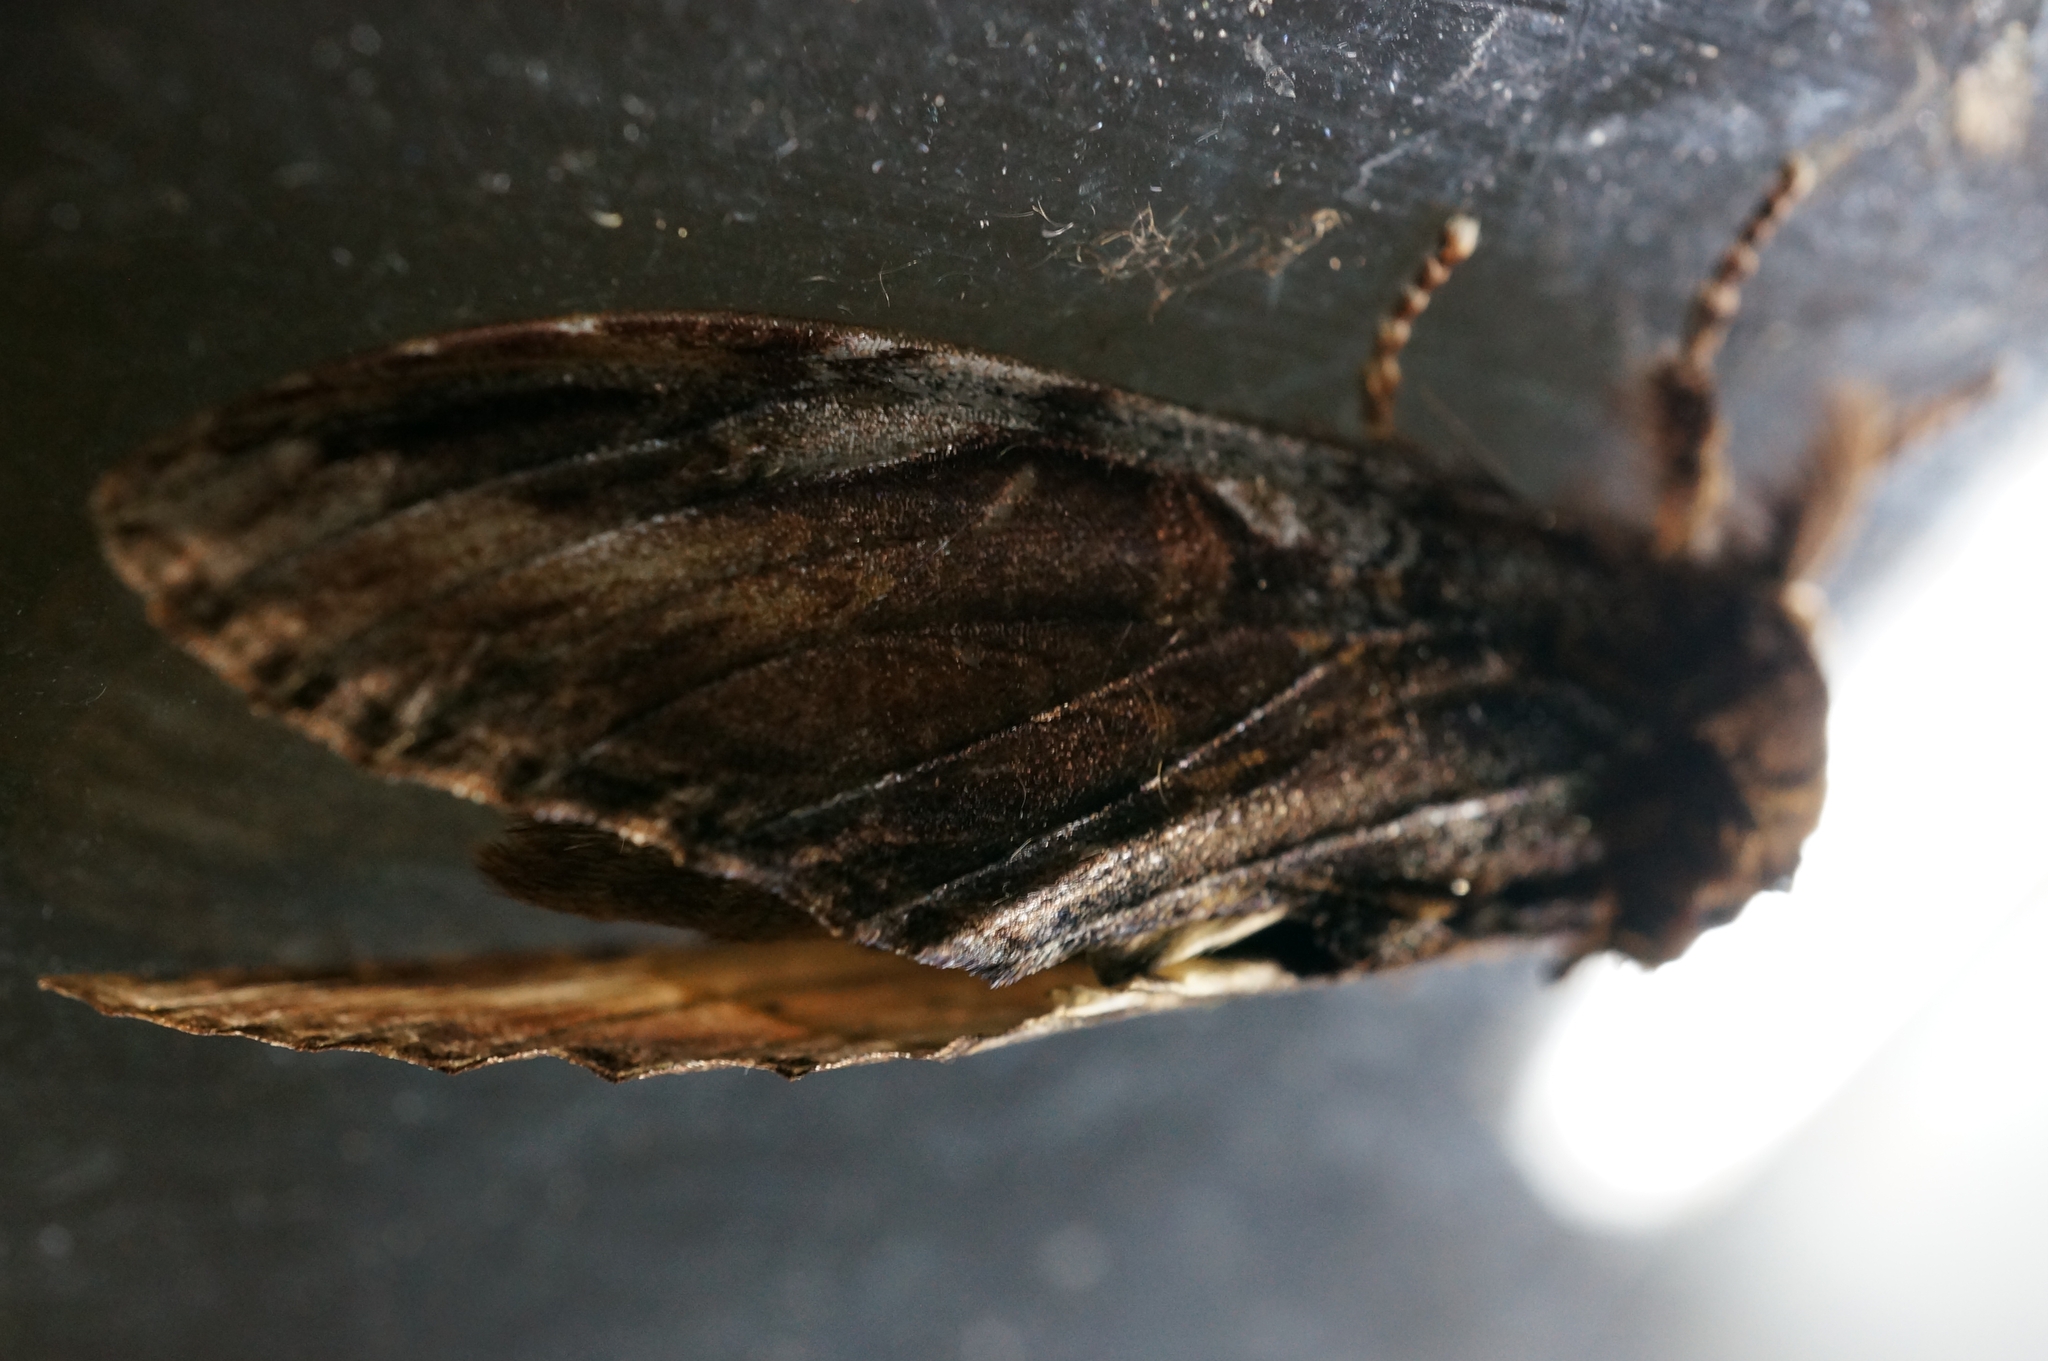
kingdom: Animalia
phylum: Arthropoda
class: Insecta
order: Lepidoptera
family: Notodontidae
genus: Acmeshachia
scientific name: Acmeshachia gigantea
